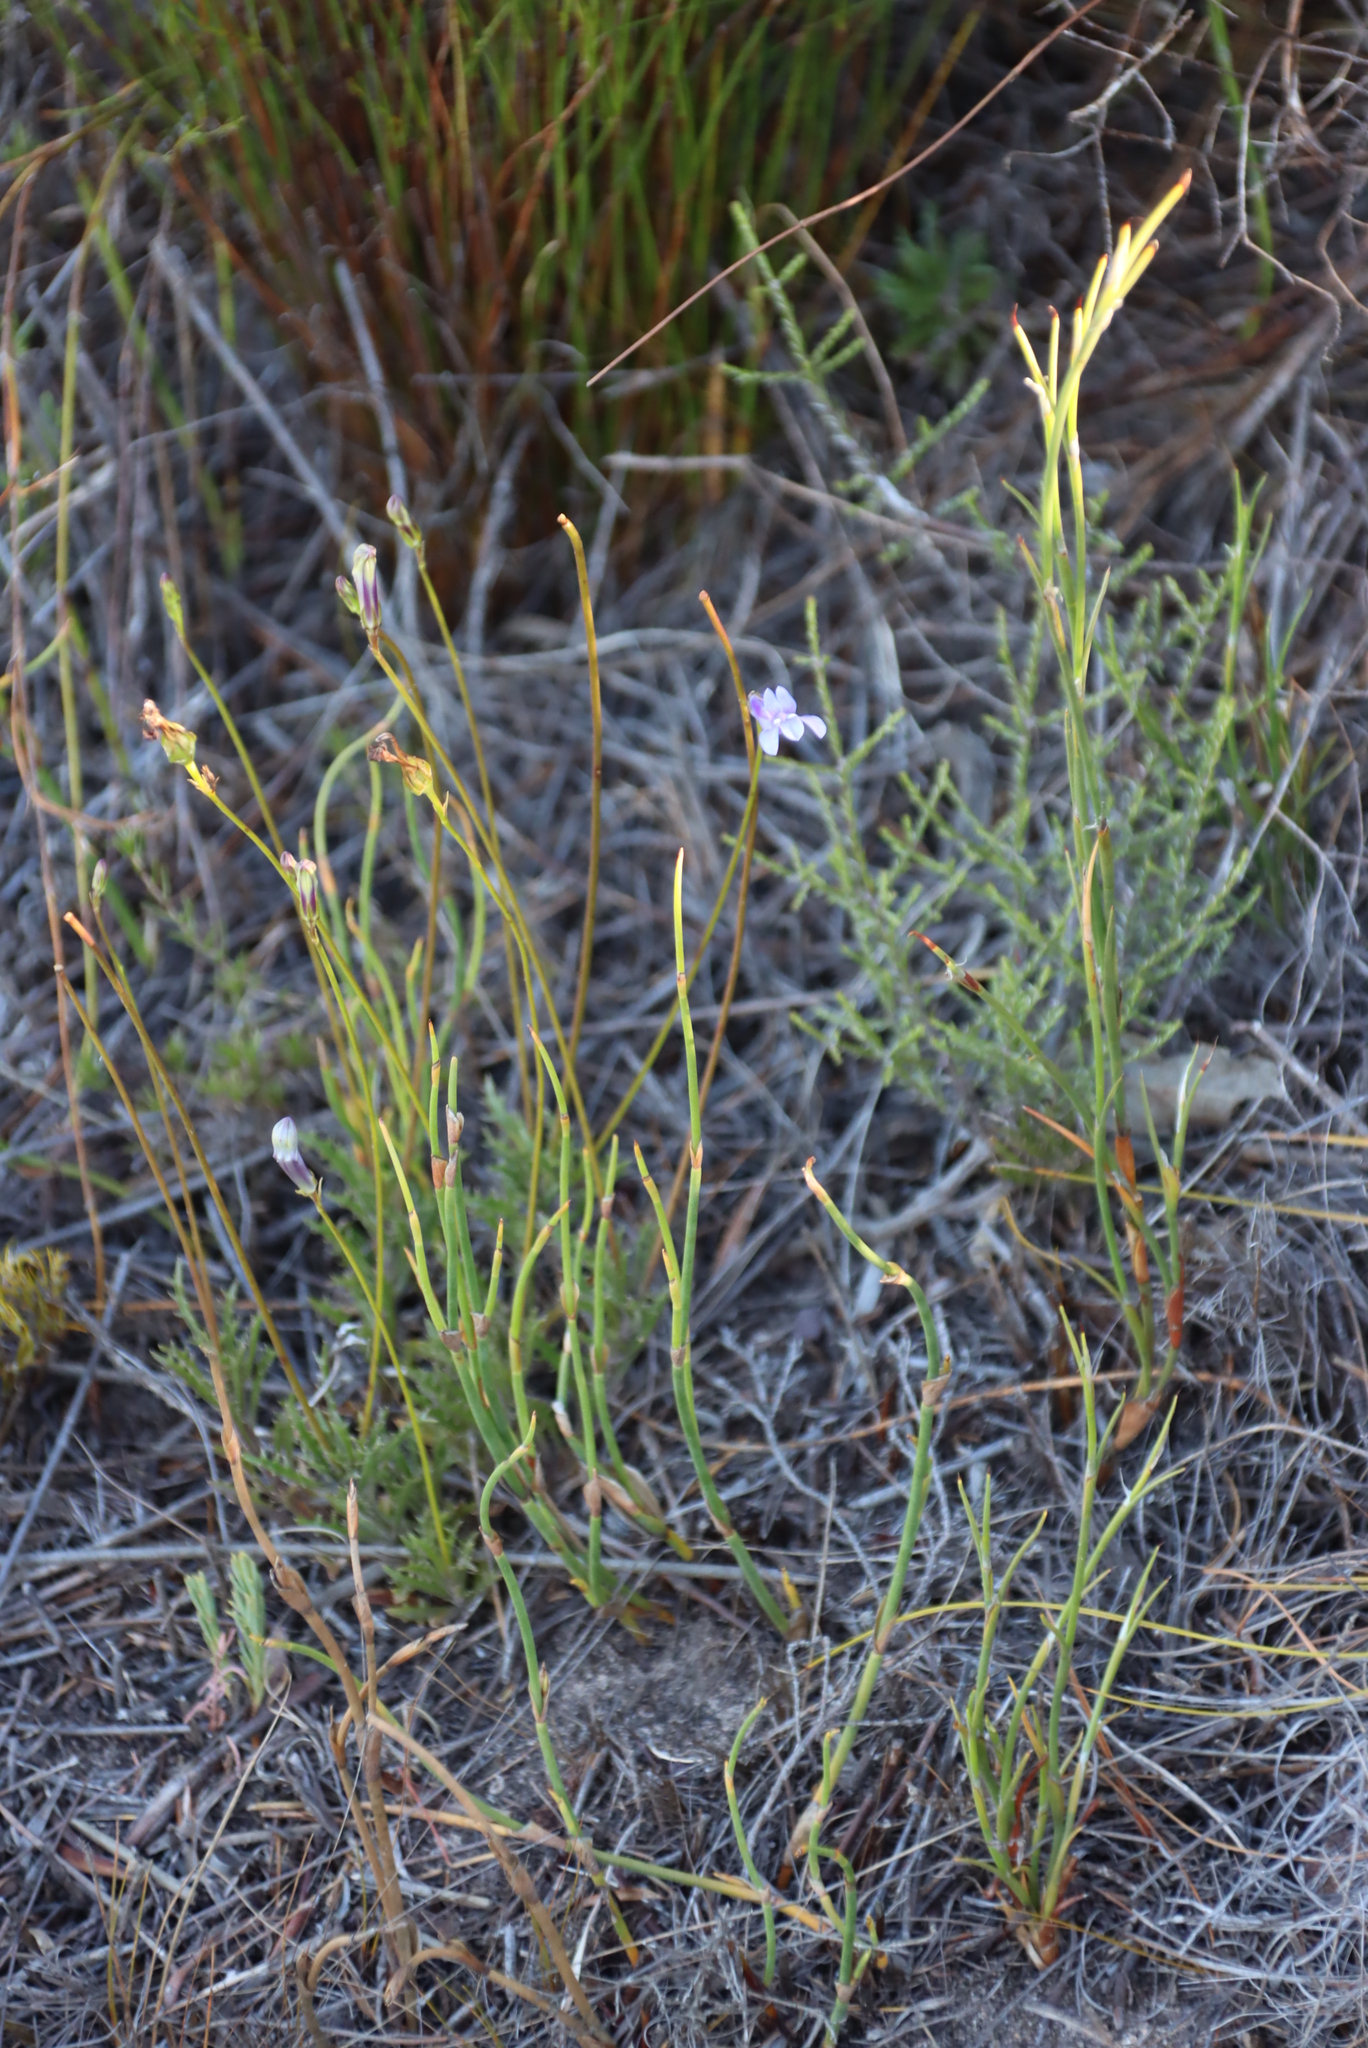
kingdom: Plantae
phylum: Tracheophyta
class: Magnoliopsida
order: Asterales
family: Campanulaceae
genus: Lobelia
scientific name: Lobelia coronopifolia
